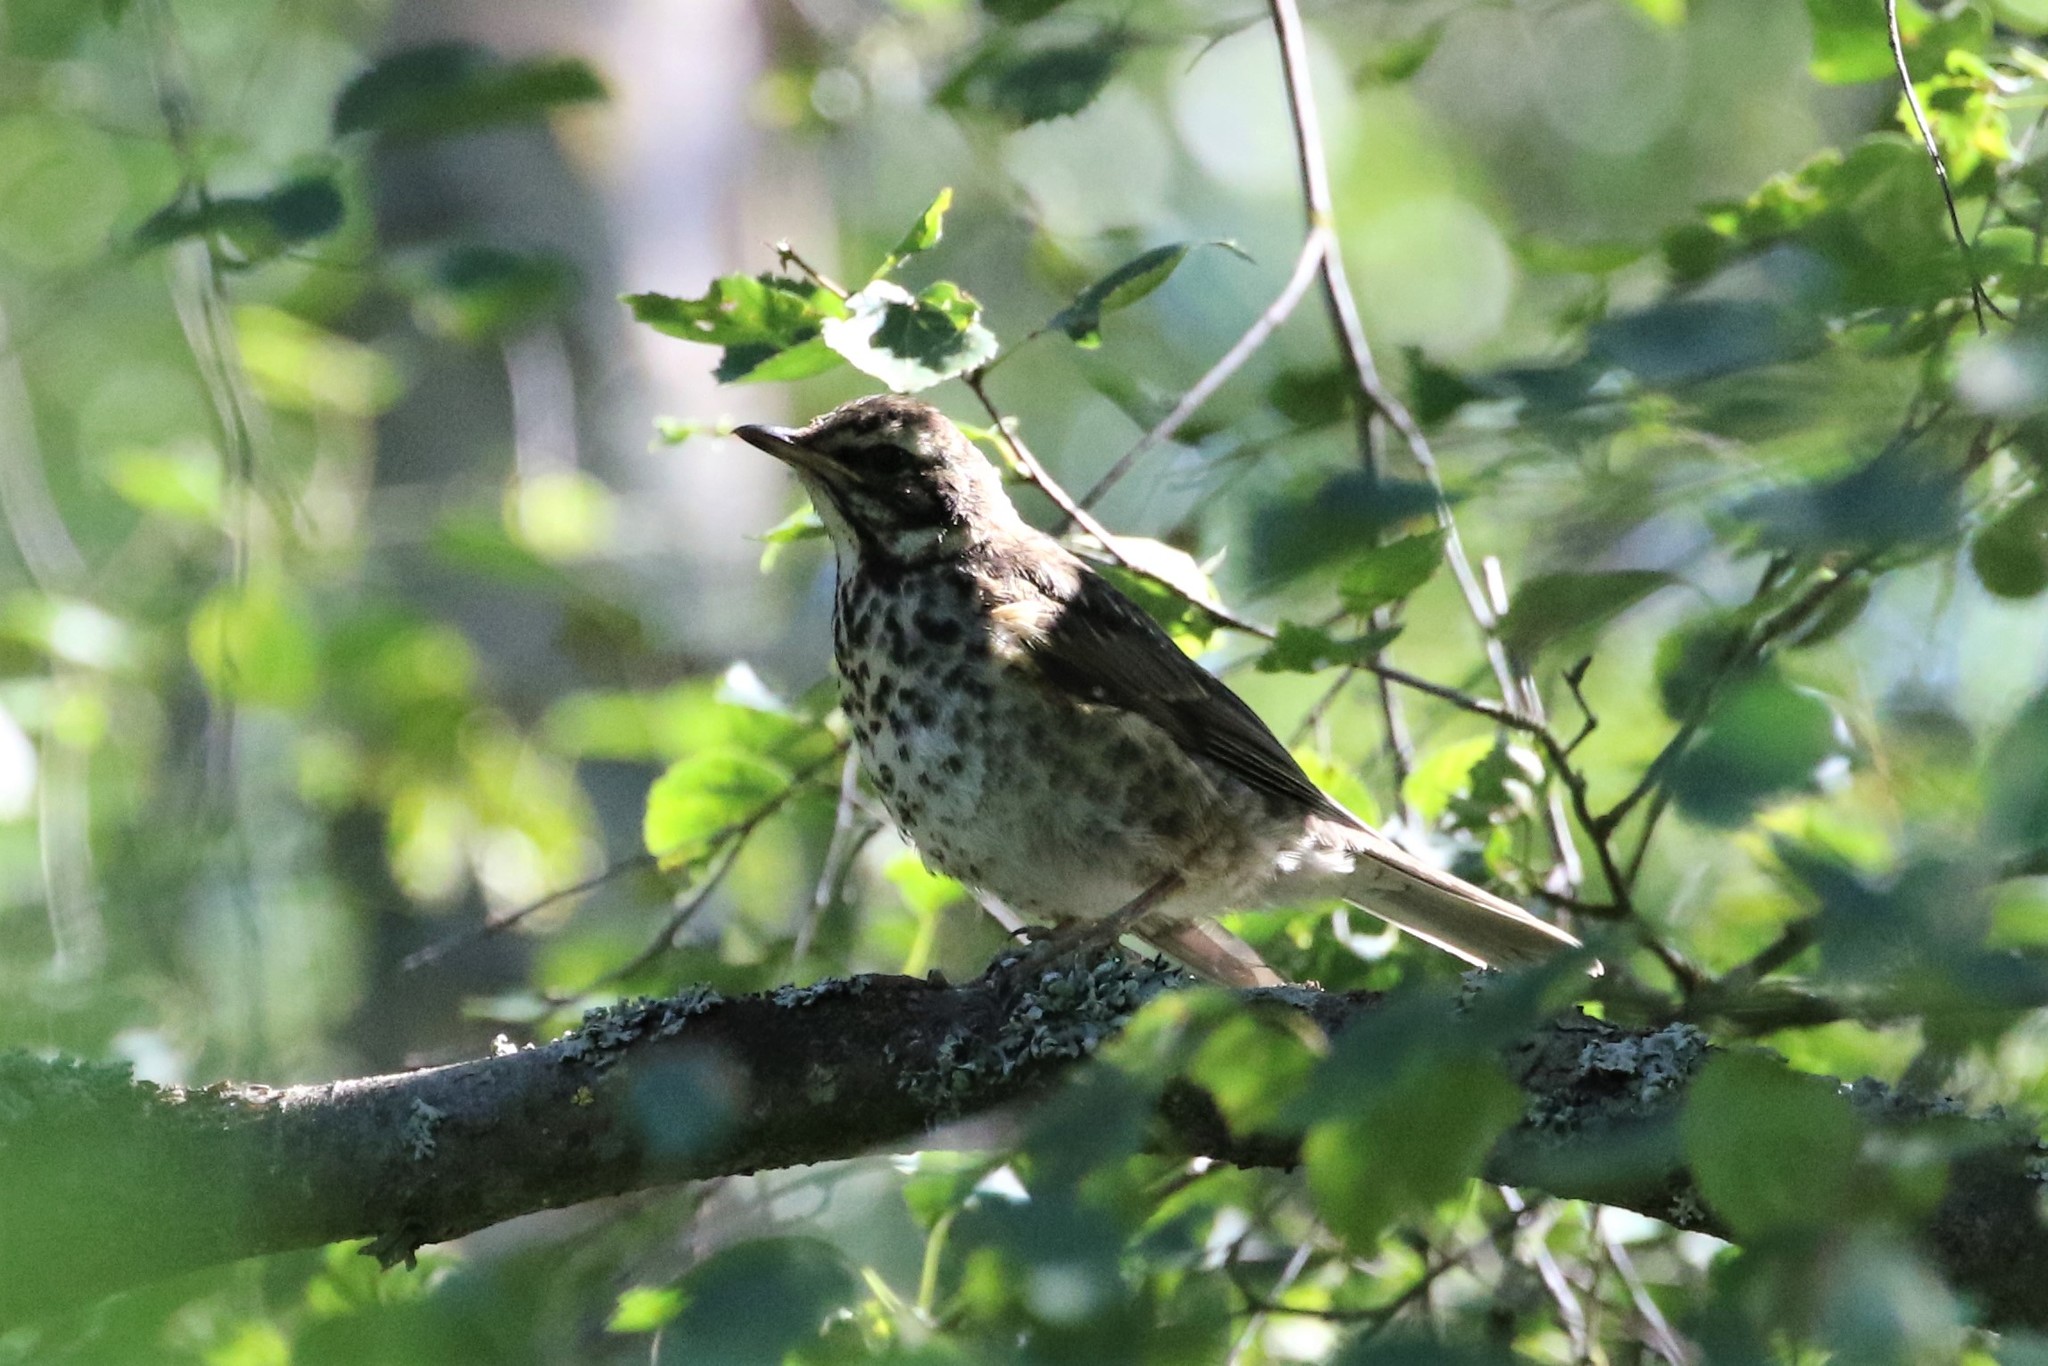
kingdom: Animalia
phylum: Chordata
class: Aves
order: Passeriformes
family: Turdidae
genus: Turdus
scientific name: Turdus iliacus
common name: Redwing
